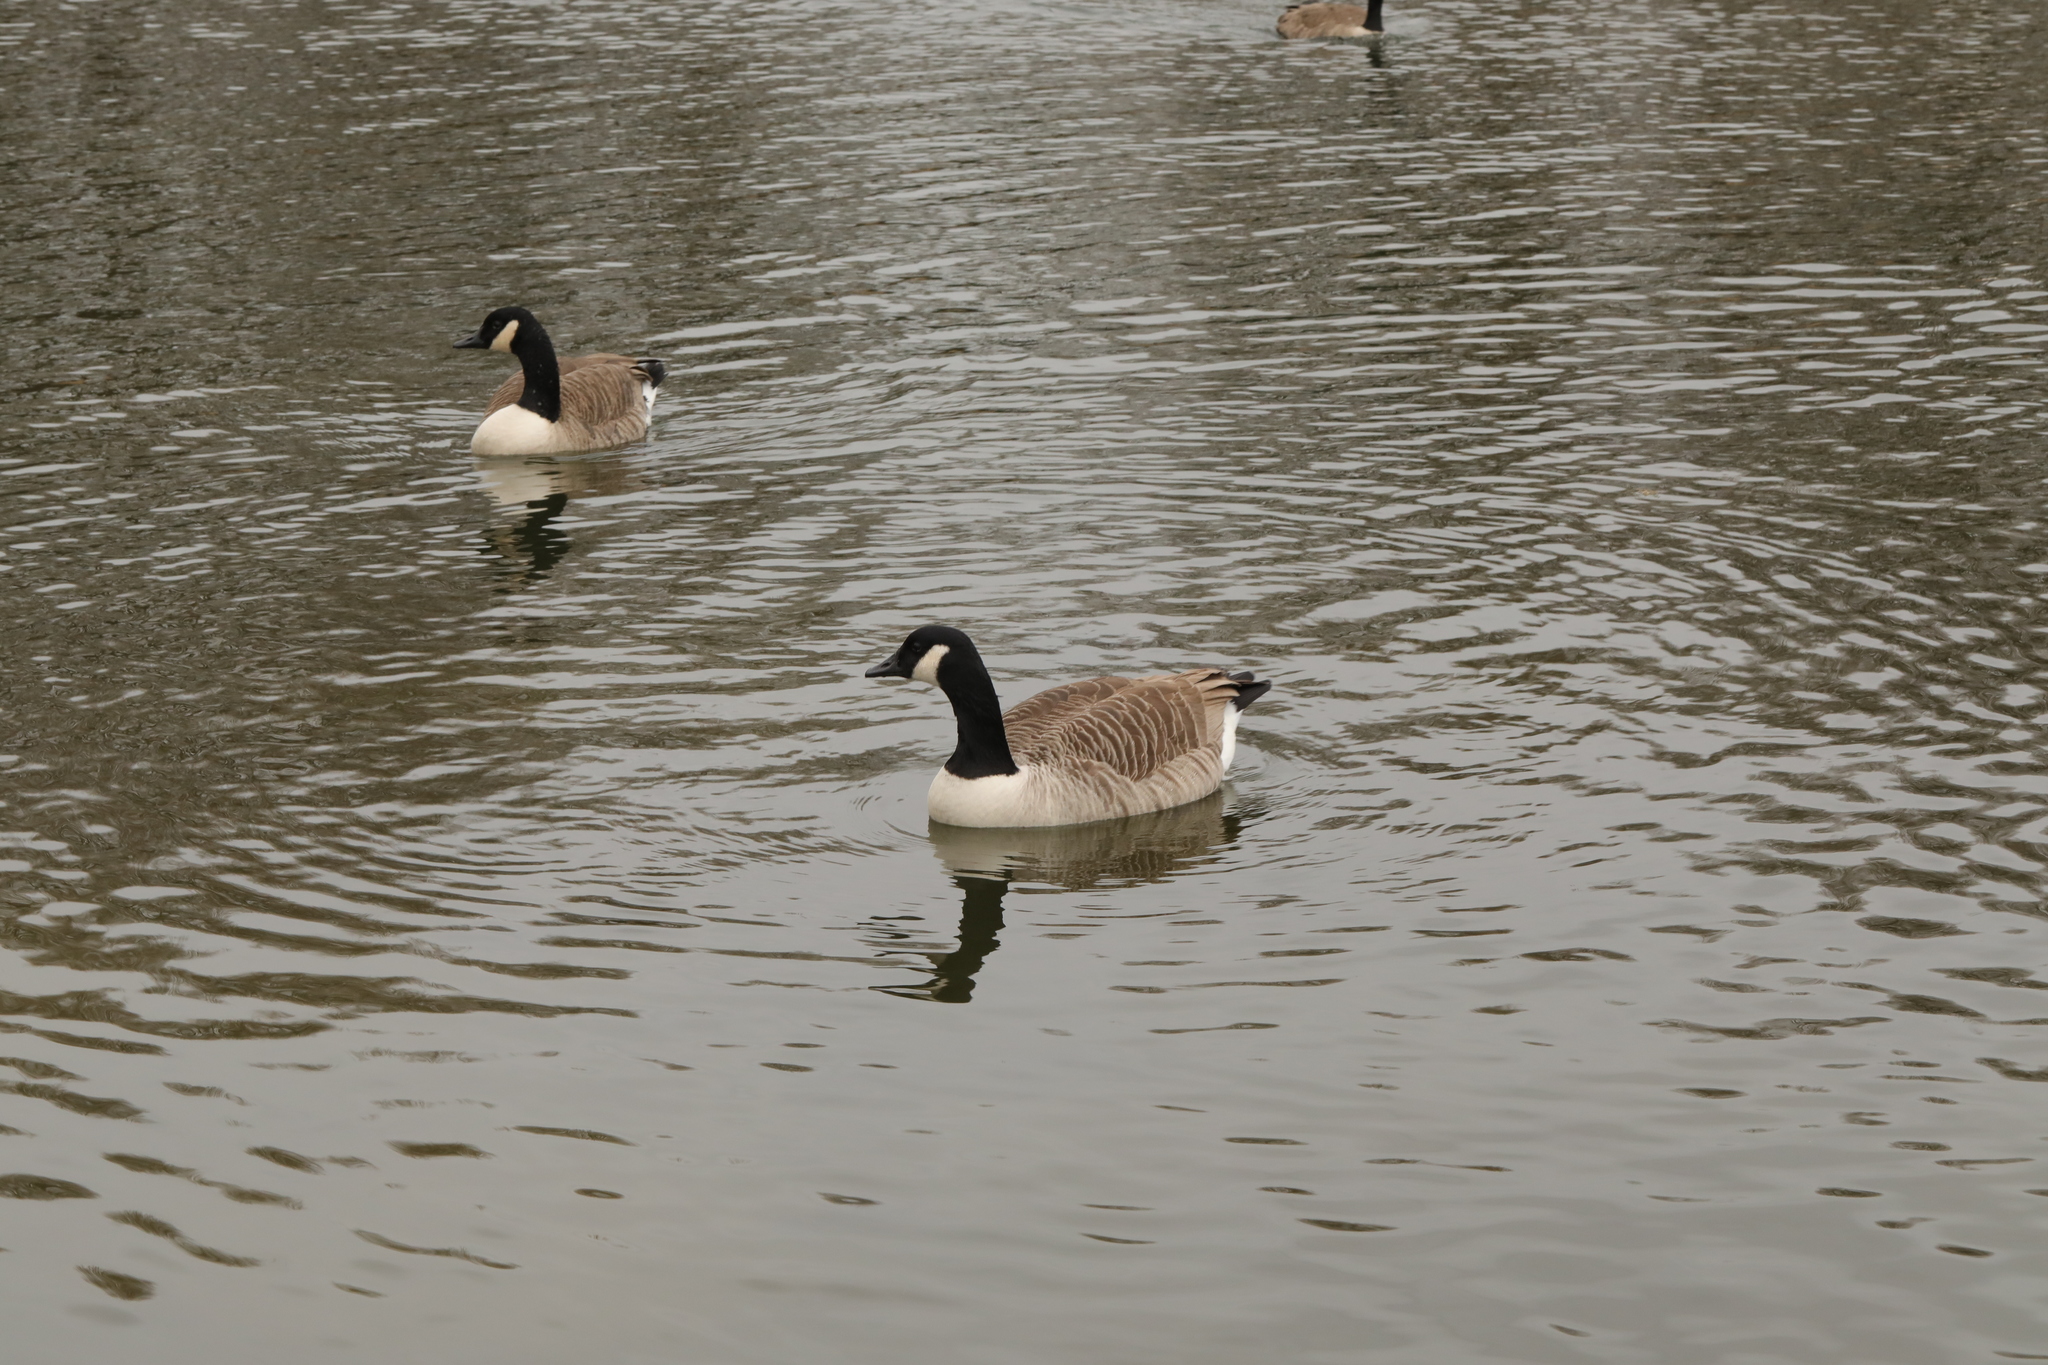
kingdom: Animalia
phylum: Chordata
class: Aves
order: Anseriformes
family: Anatidae
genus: Branta
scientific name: Branta canadensis
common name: Canada goose
